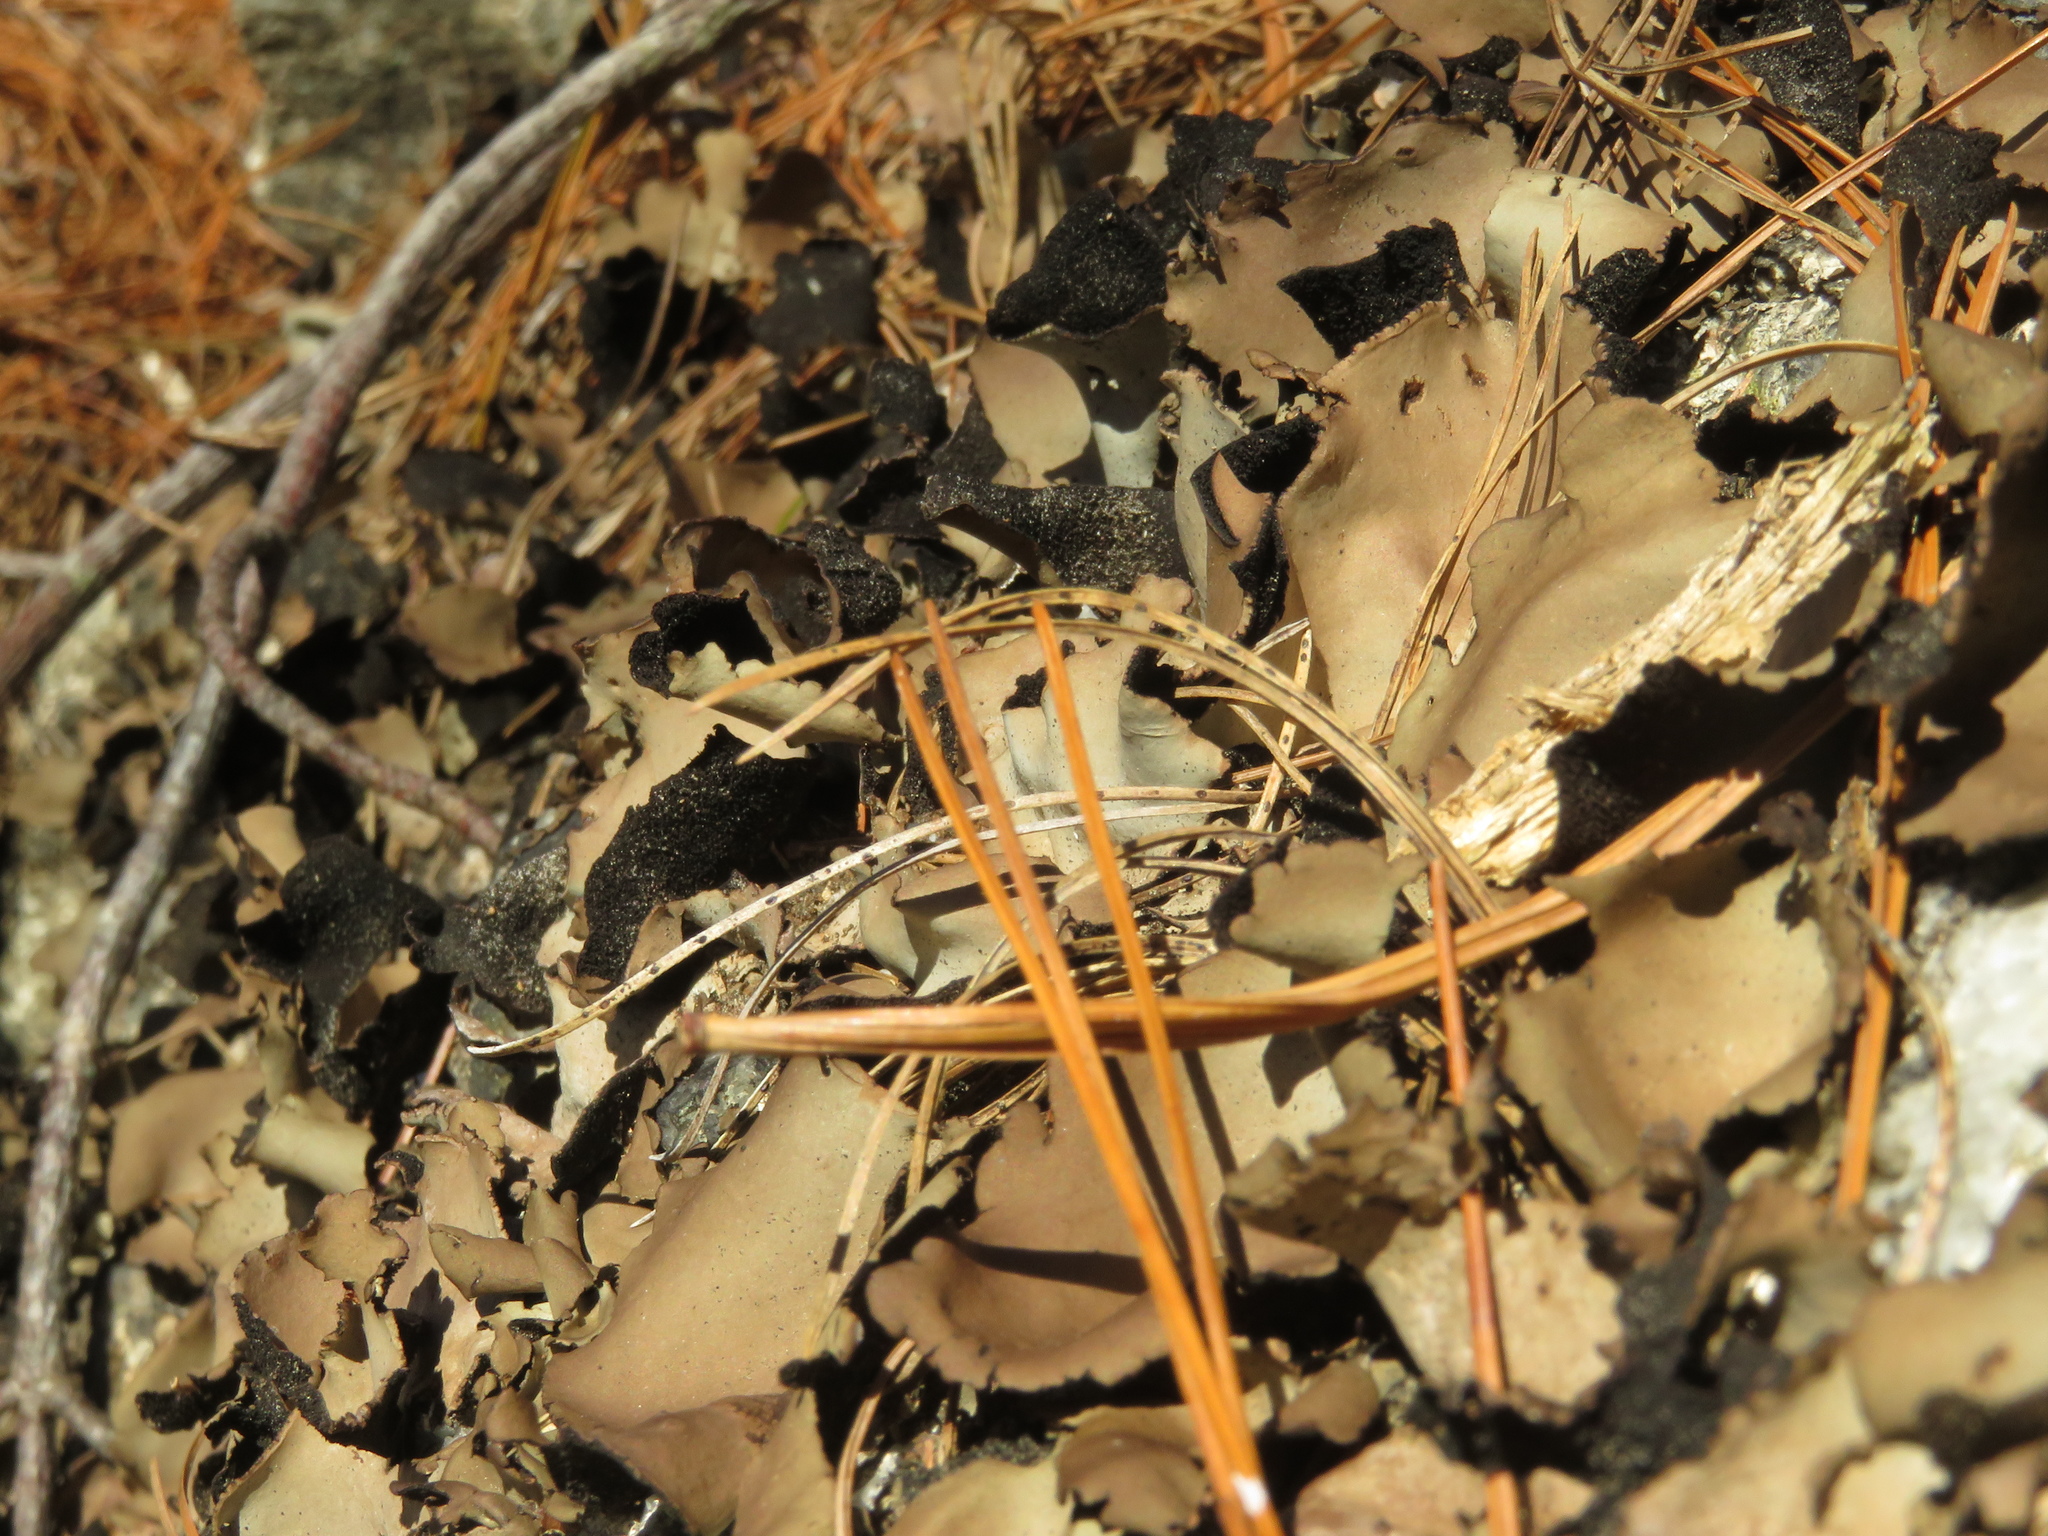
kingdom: Fungi
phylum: Ascomycota
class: Lecanoromycetes
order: Umbilicariales
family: Umbilicariaceae
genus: Umbilicaria
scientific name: Umbilicaria mammulata
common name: Smooth rock tripe
